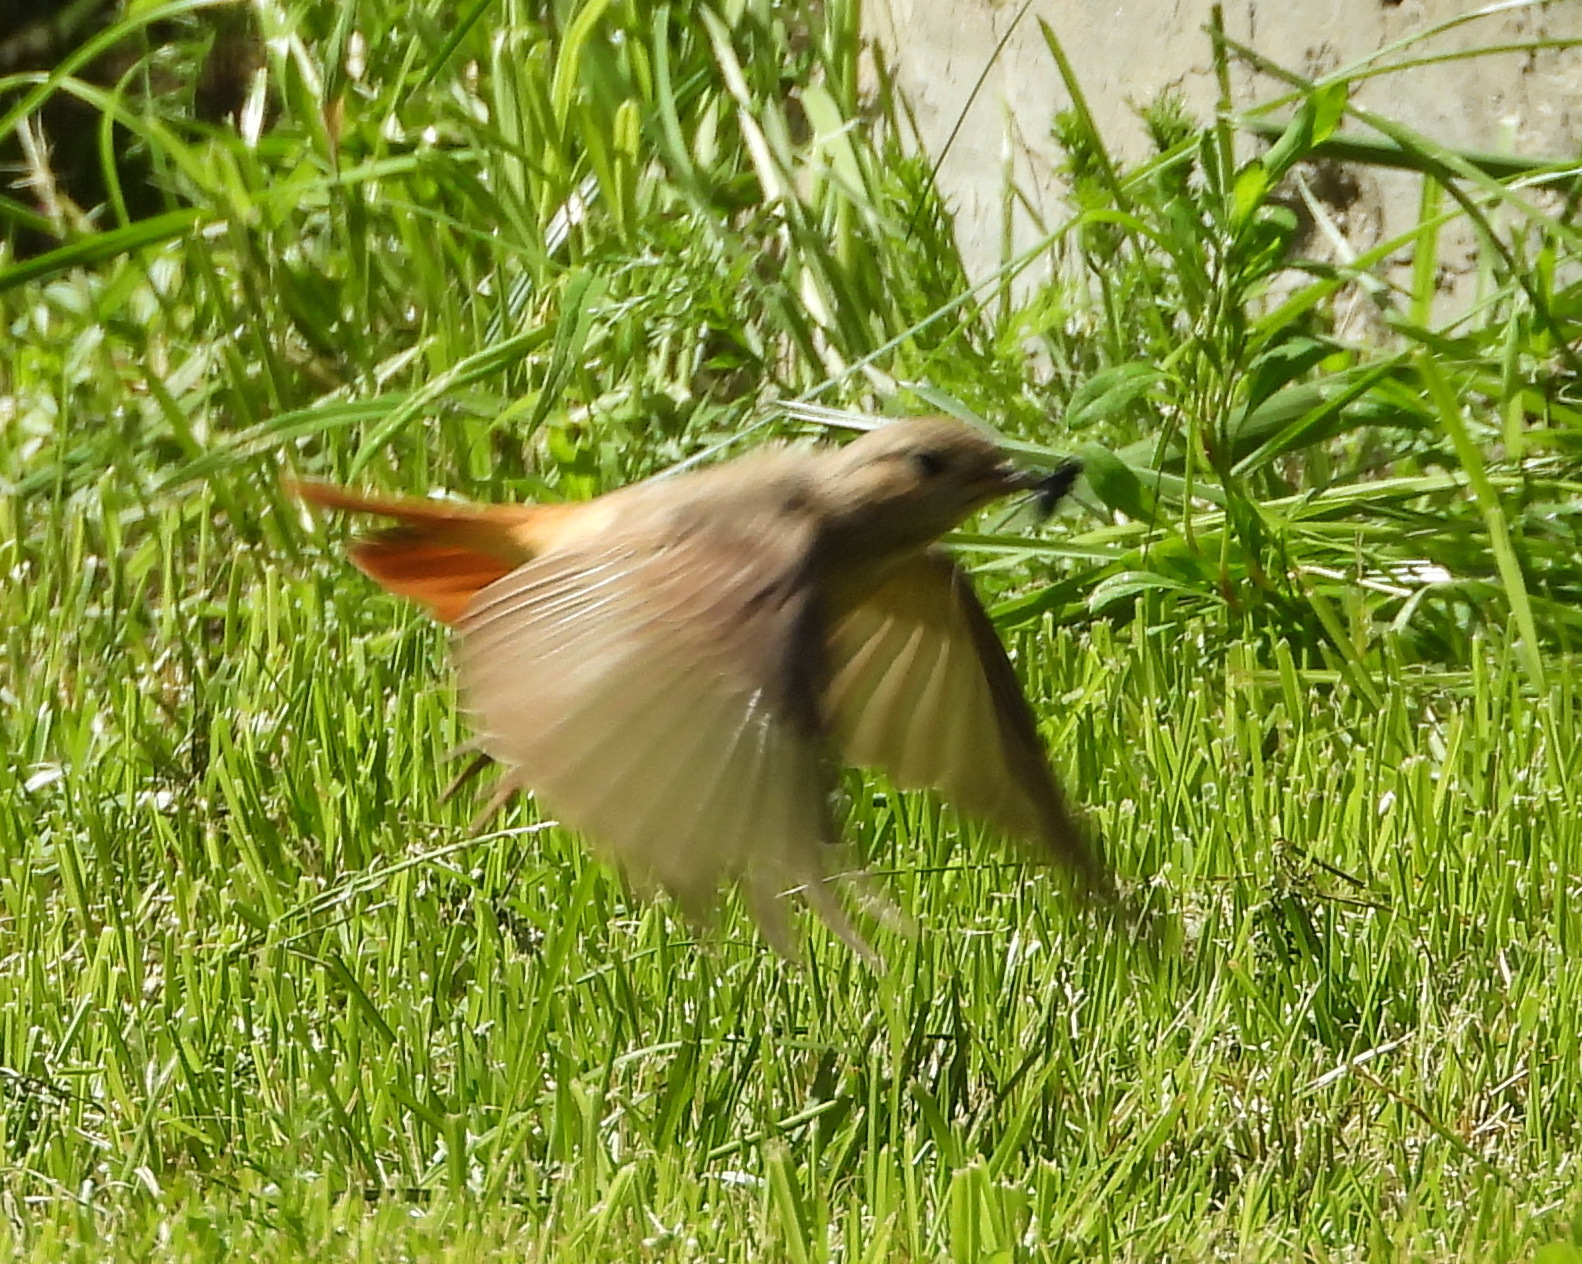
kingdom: Animalia
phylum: Chordata
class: Aves
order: Passeriformes
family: Muscicapidae
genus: Phoenicurus
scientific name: Phoenicurus phoenicurus
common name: Common redstart
